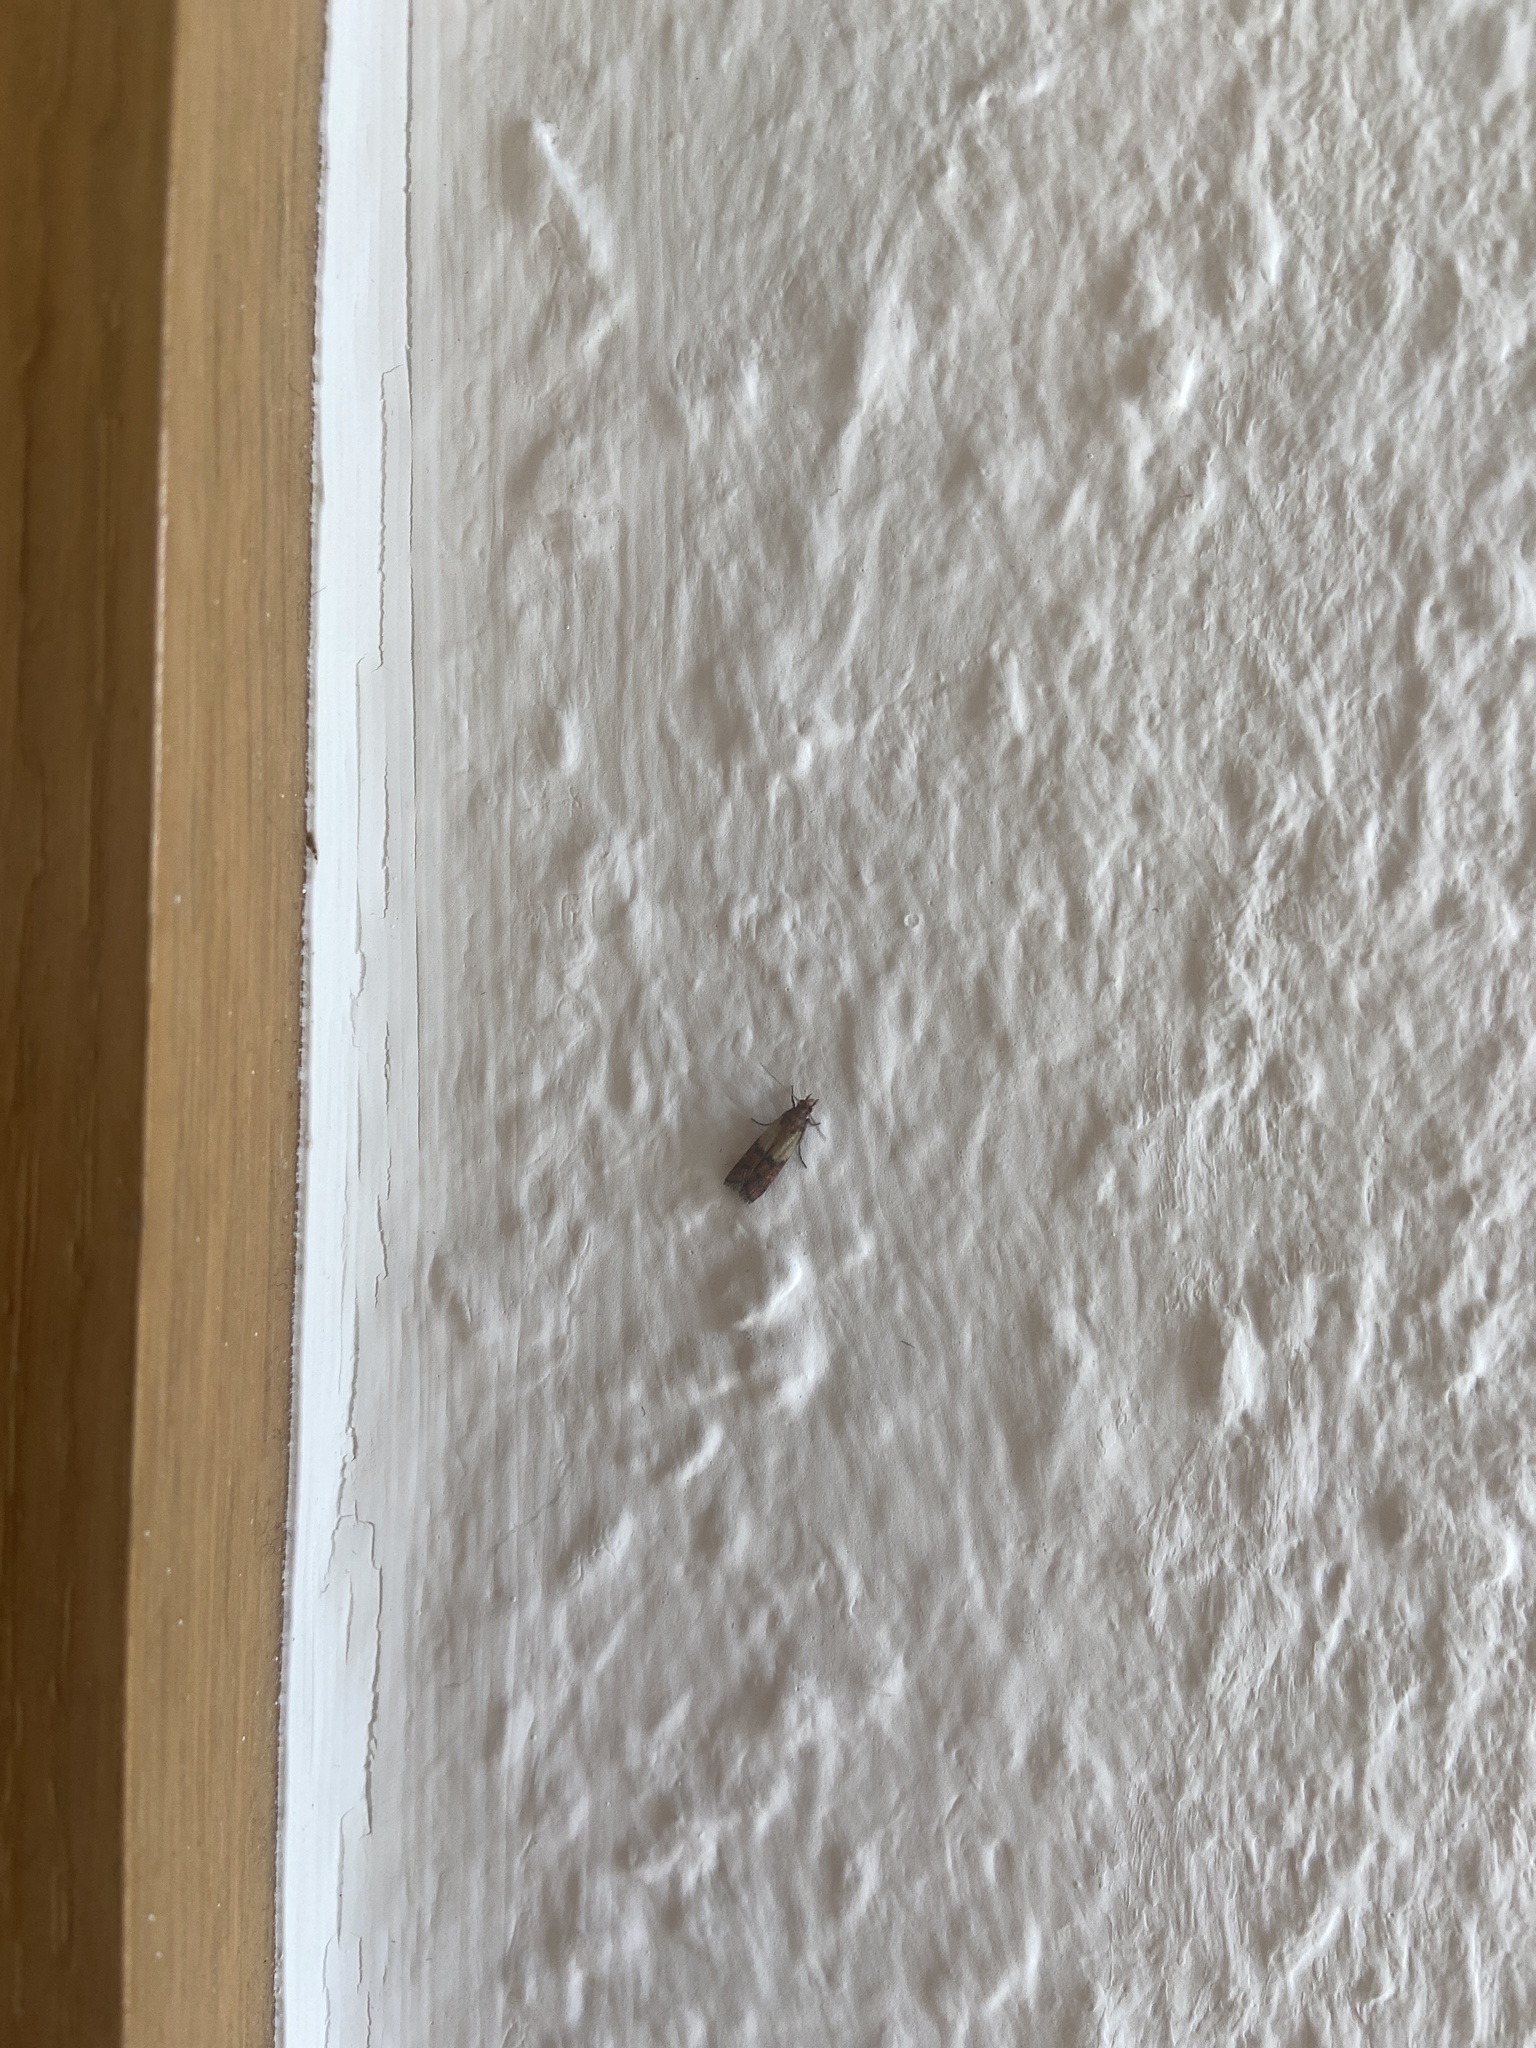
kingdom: Animalia
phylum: Arthropoda
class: Insecta
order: Lepidoptera
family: Pyralidae
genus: Plodia
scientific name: Plodia interpunctella
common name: Indian meal moth
